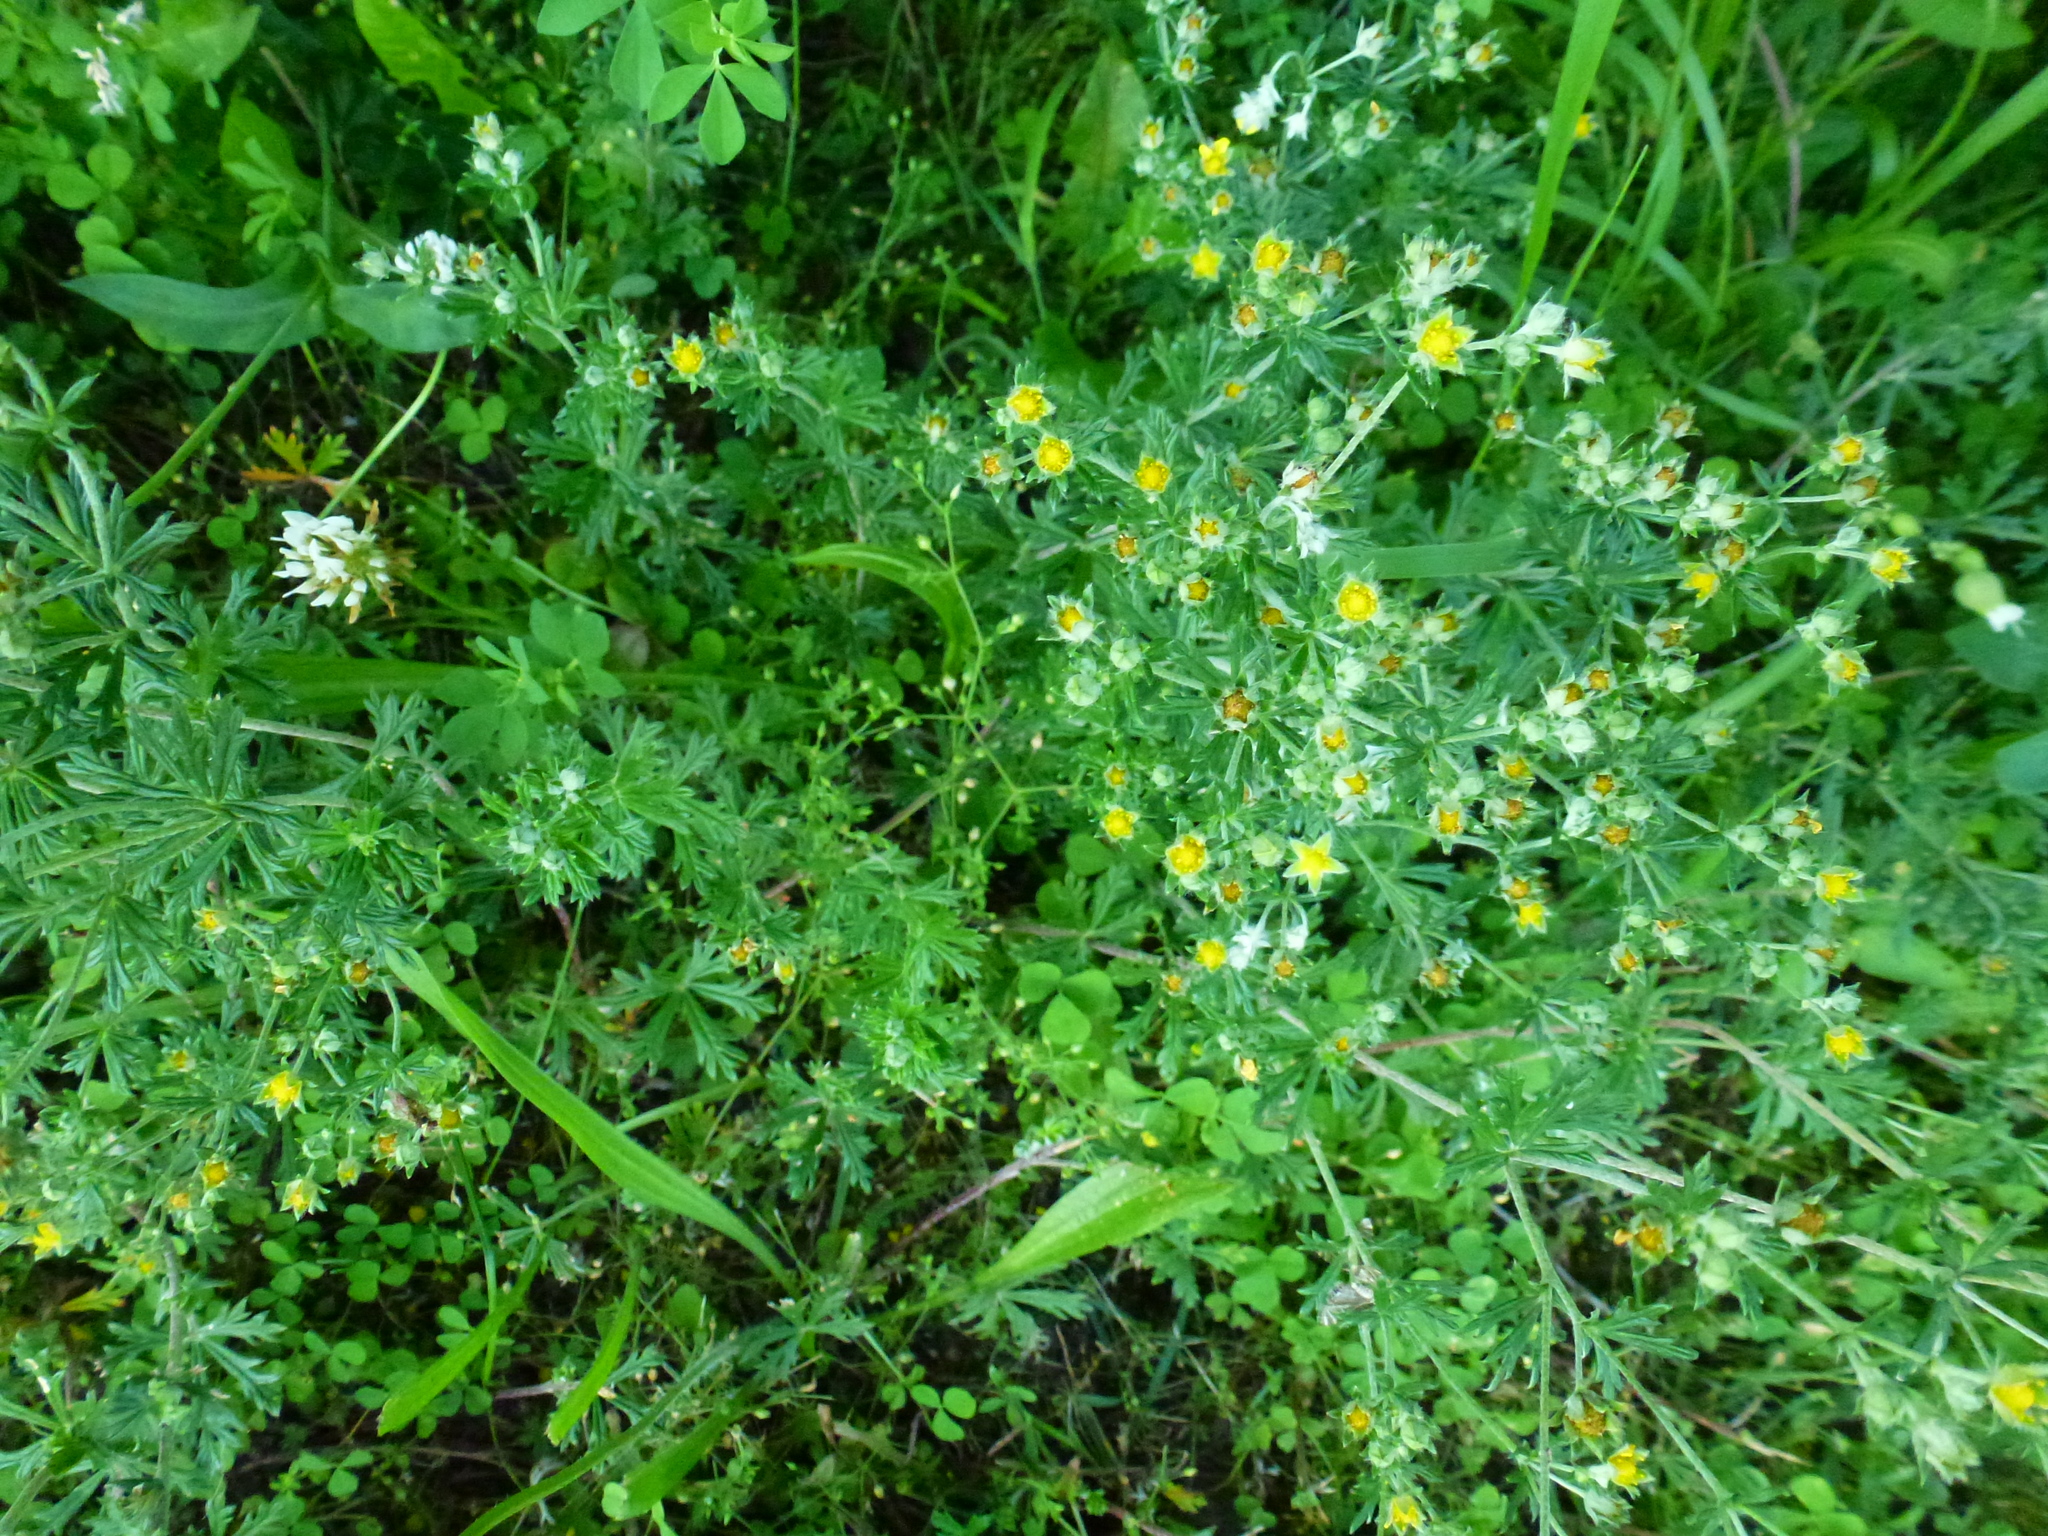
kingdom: Plantae
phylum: Tracheophyta
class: Magnoliopsida
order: Rosales
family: Rosaceae
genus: Potentilla
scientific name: Potentilla argentea
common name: Hoary cinquefoil
